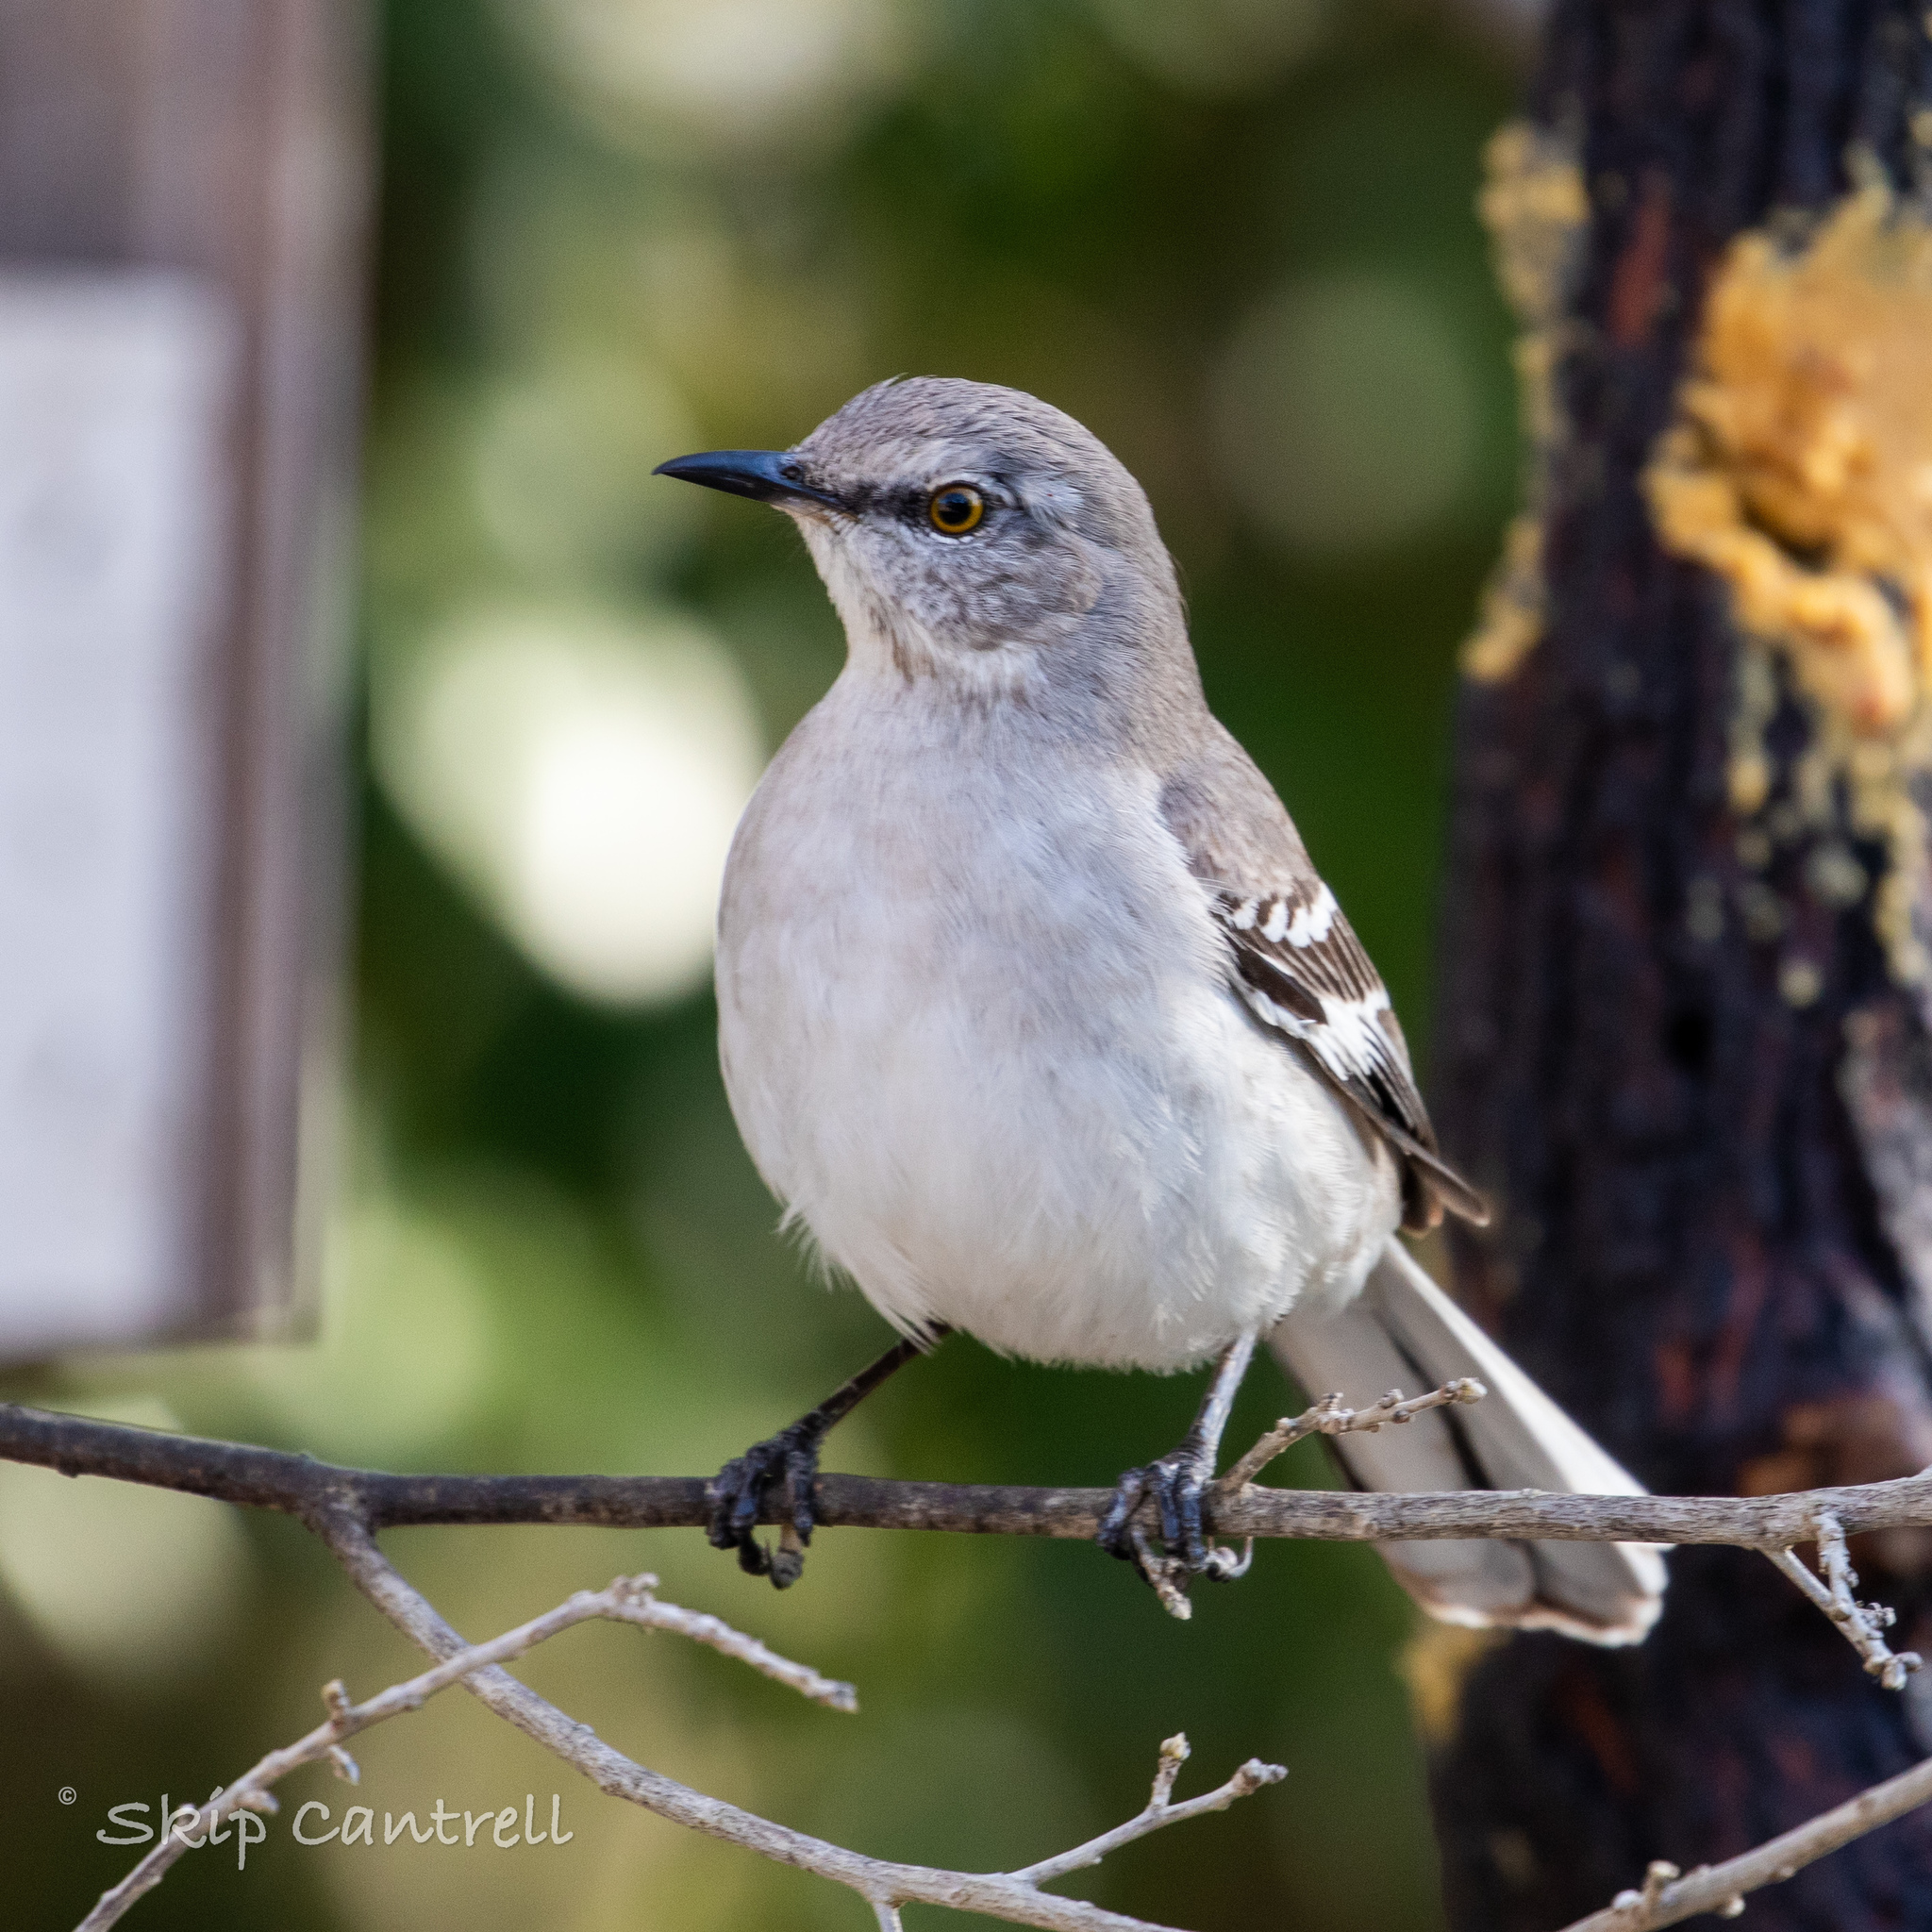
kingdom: Animalia
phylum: Chordata
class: Aves
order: Passeriformes
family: Mimidae
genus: Mimus
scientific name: Mimus polyglottos
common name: Northern mockingbird
